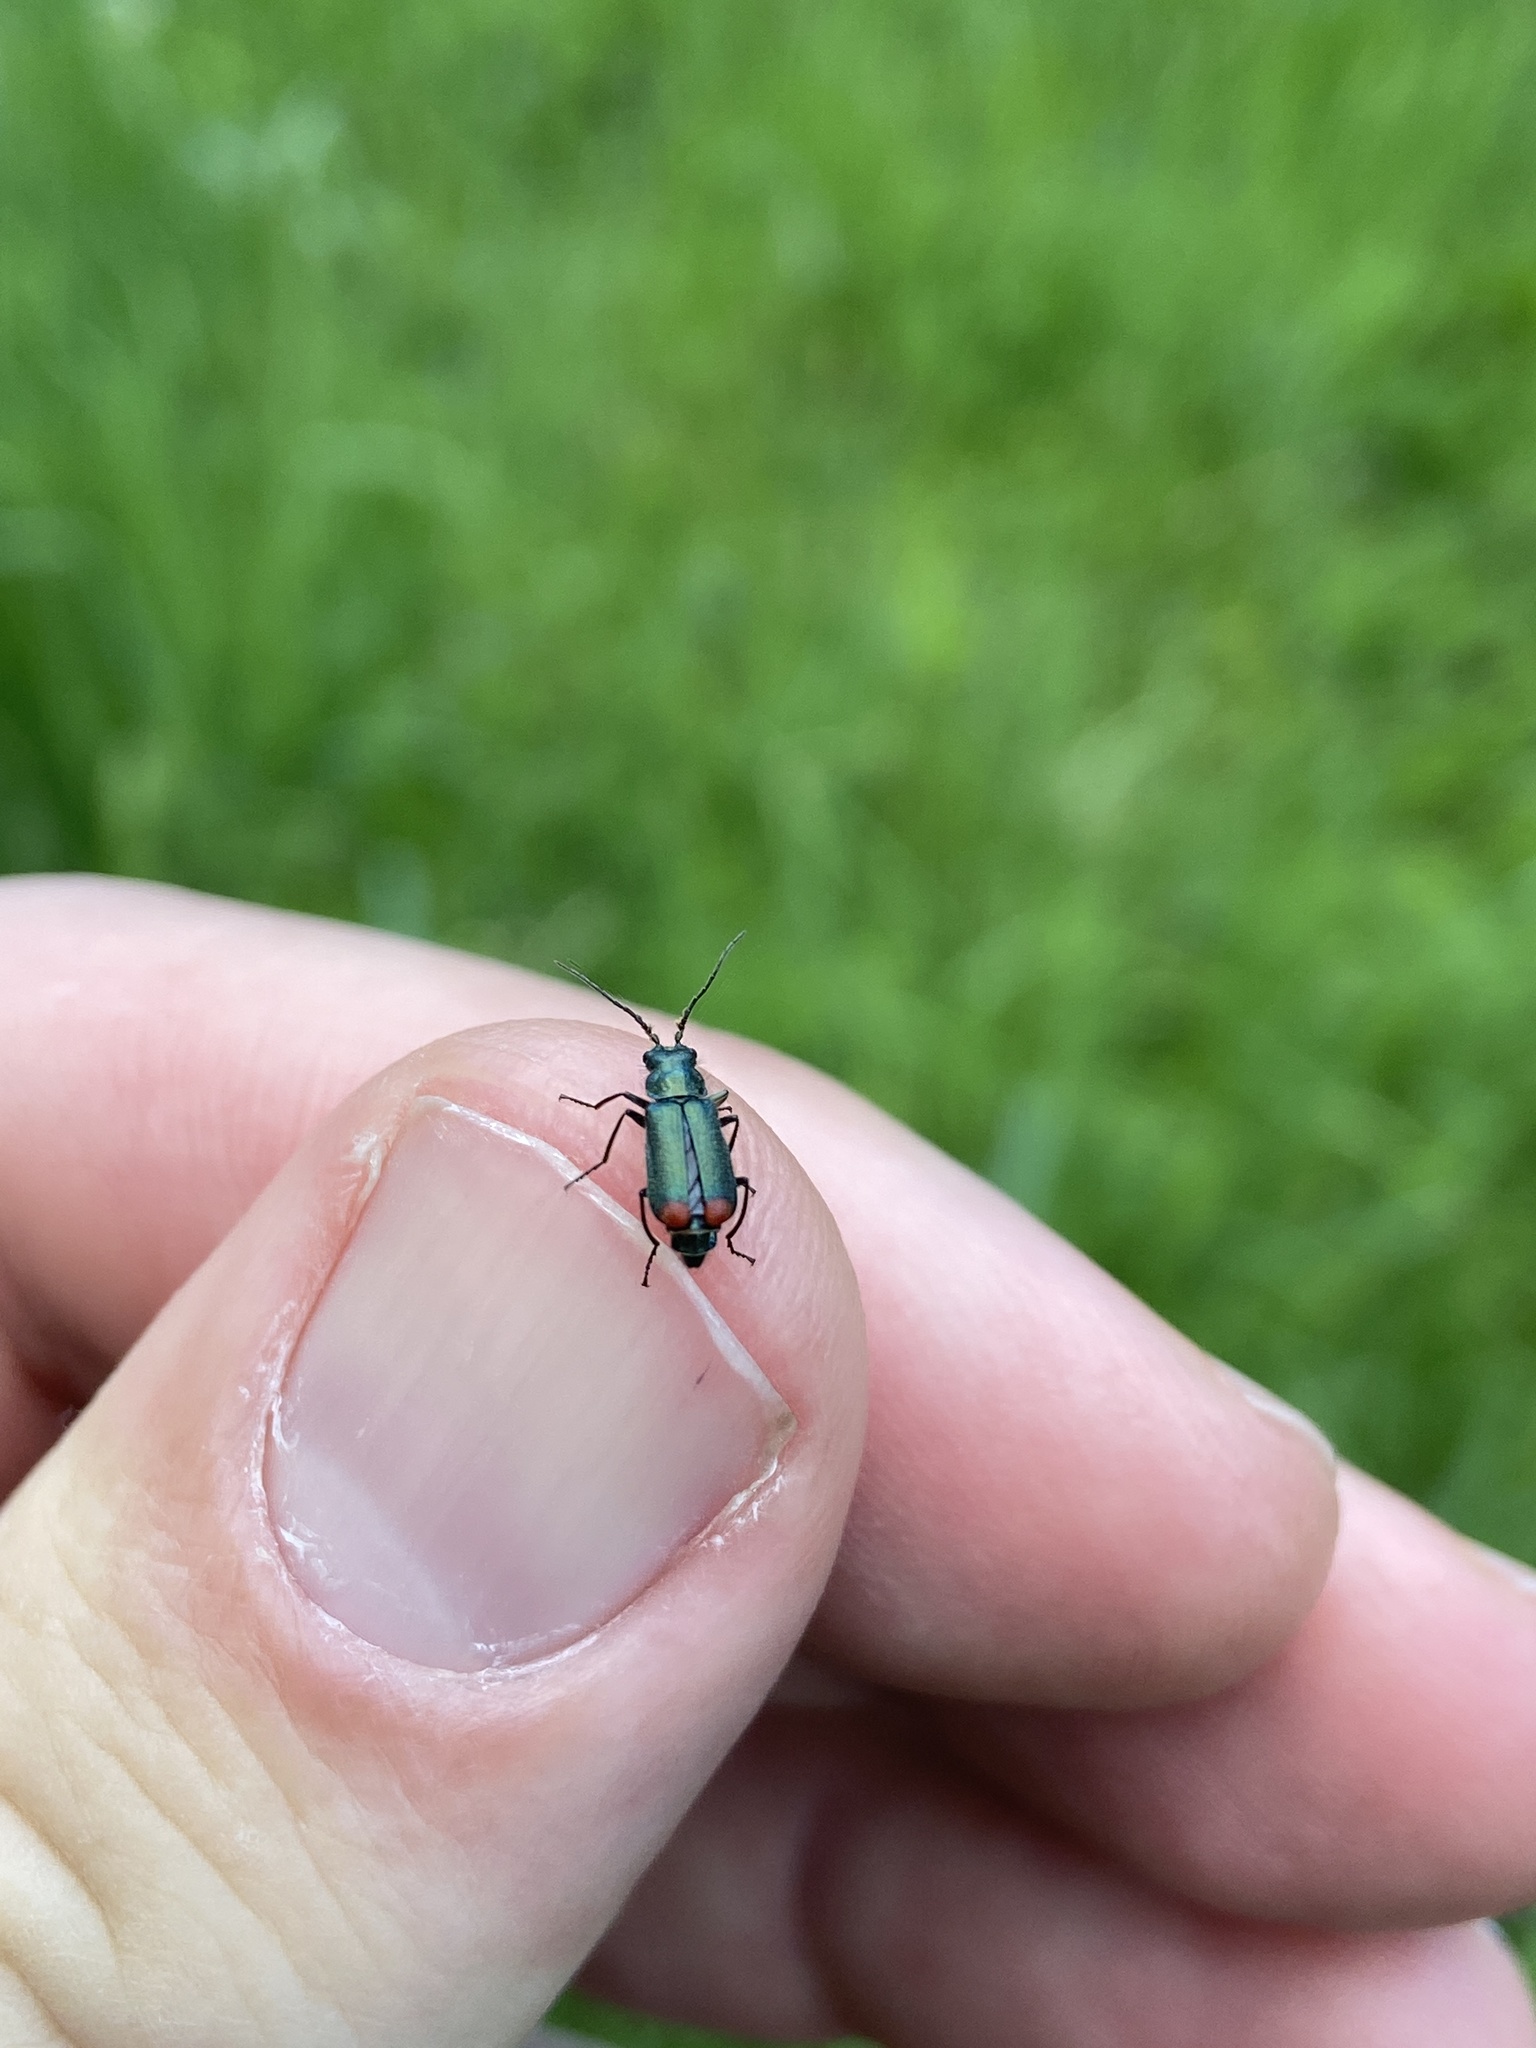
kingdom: Animalia
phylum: Arthropoda
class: Insecta
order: Coleoptera
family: Melyridae
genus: Malachius
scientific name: Malachius bipustulatus
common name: Malachite beetle
